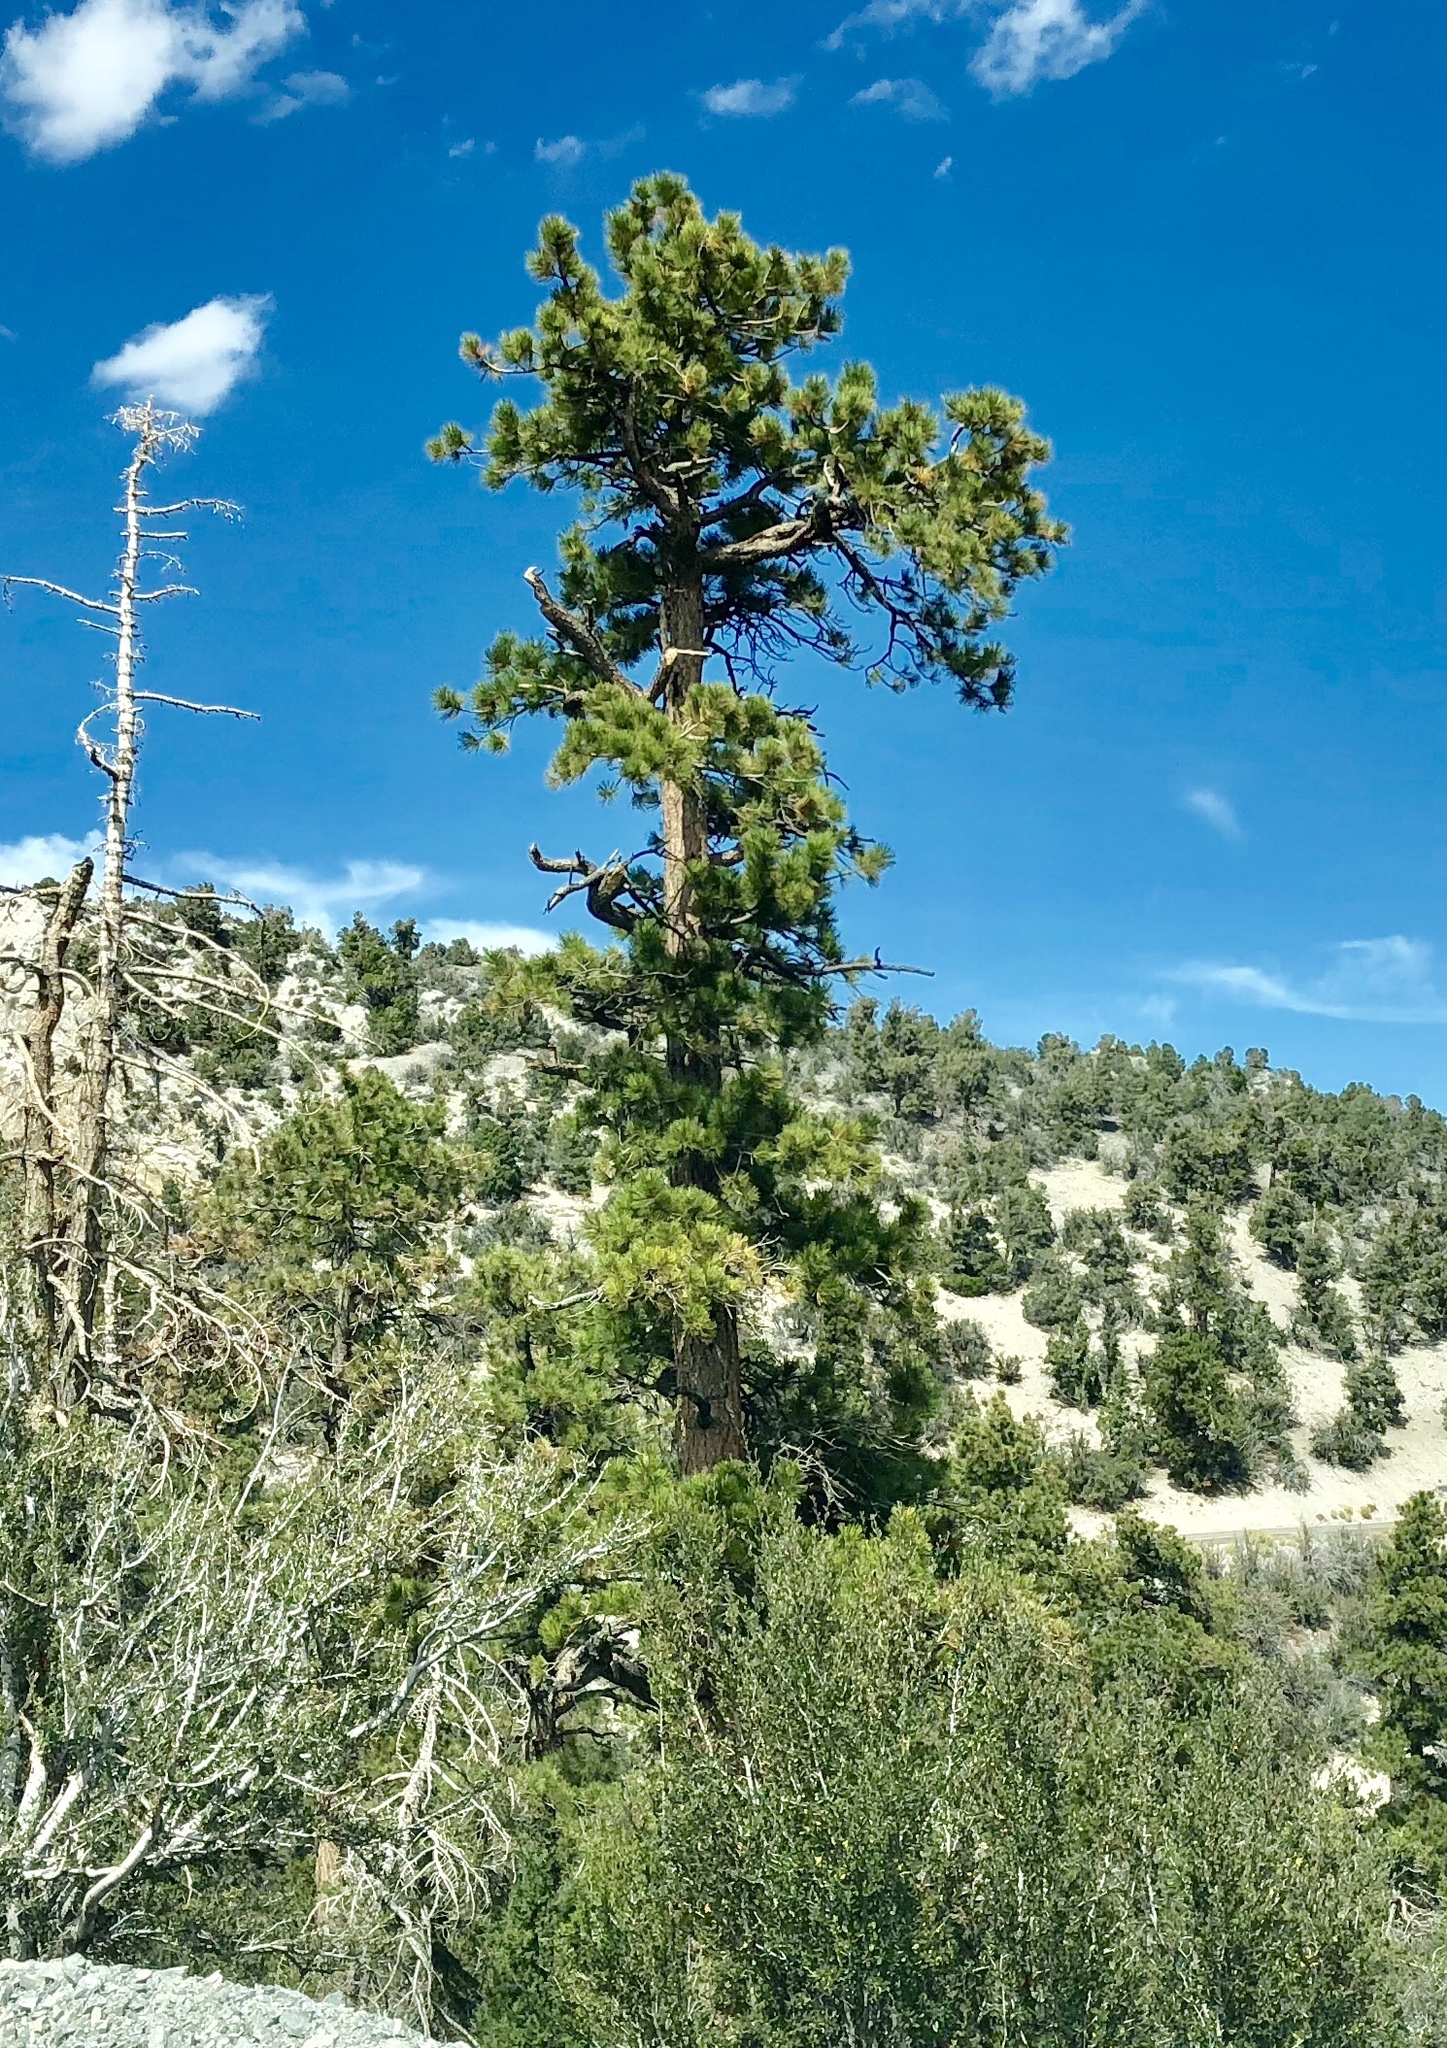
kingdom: Plantae
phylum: Tracheophyta
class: Pinopsida
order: Pinales
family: Pinaceae
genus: Pinus
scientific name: Pinus ponderosa
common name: Western yellow-pine
